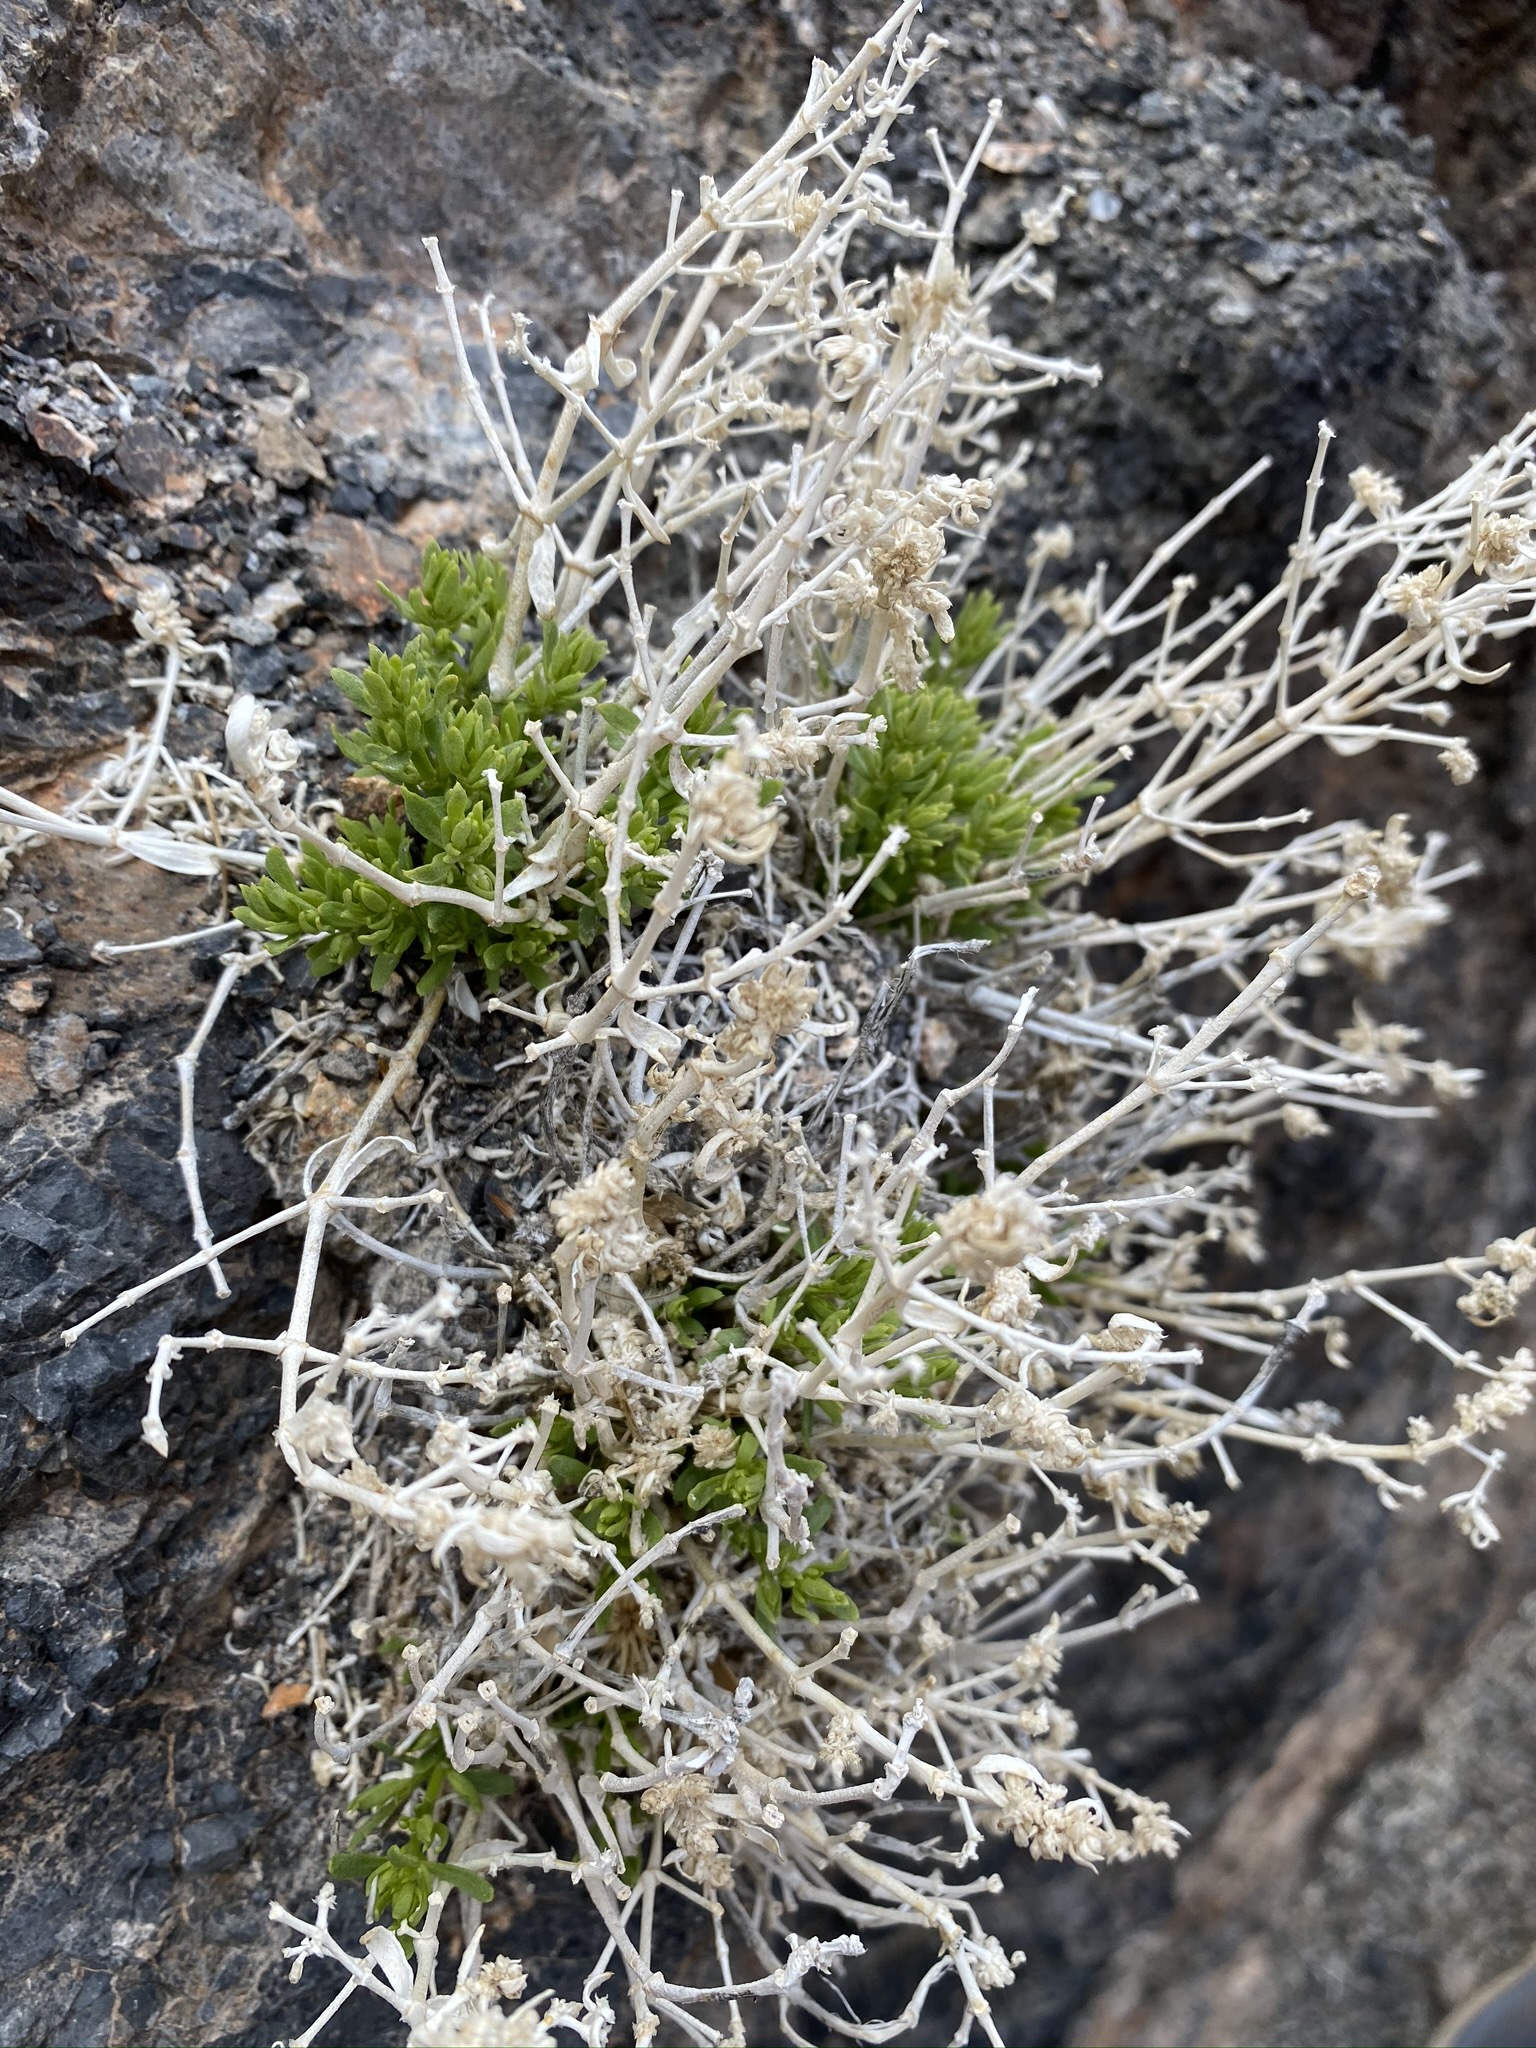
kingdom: Plantae
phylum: Tracheophyta
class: Magnoliopsida
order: Caryophyllales
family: Caryophyllaceae
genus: Scopulophila
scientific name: Scopulophila rixfordii
